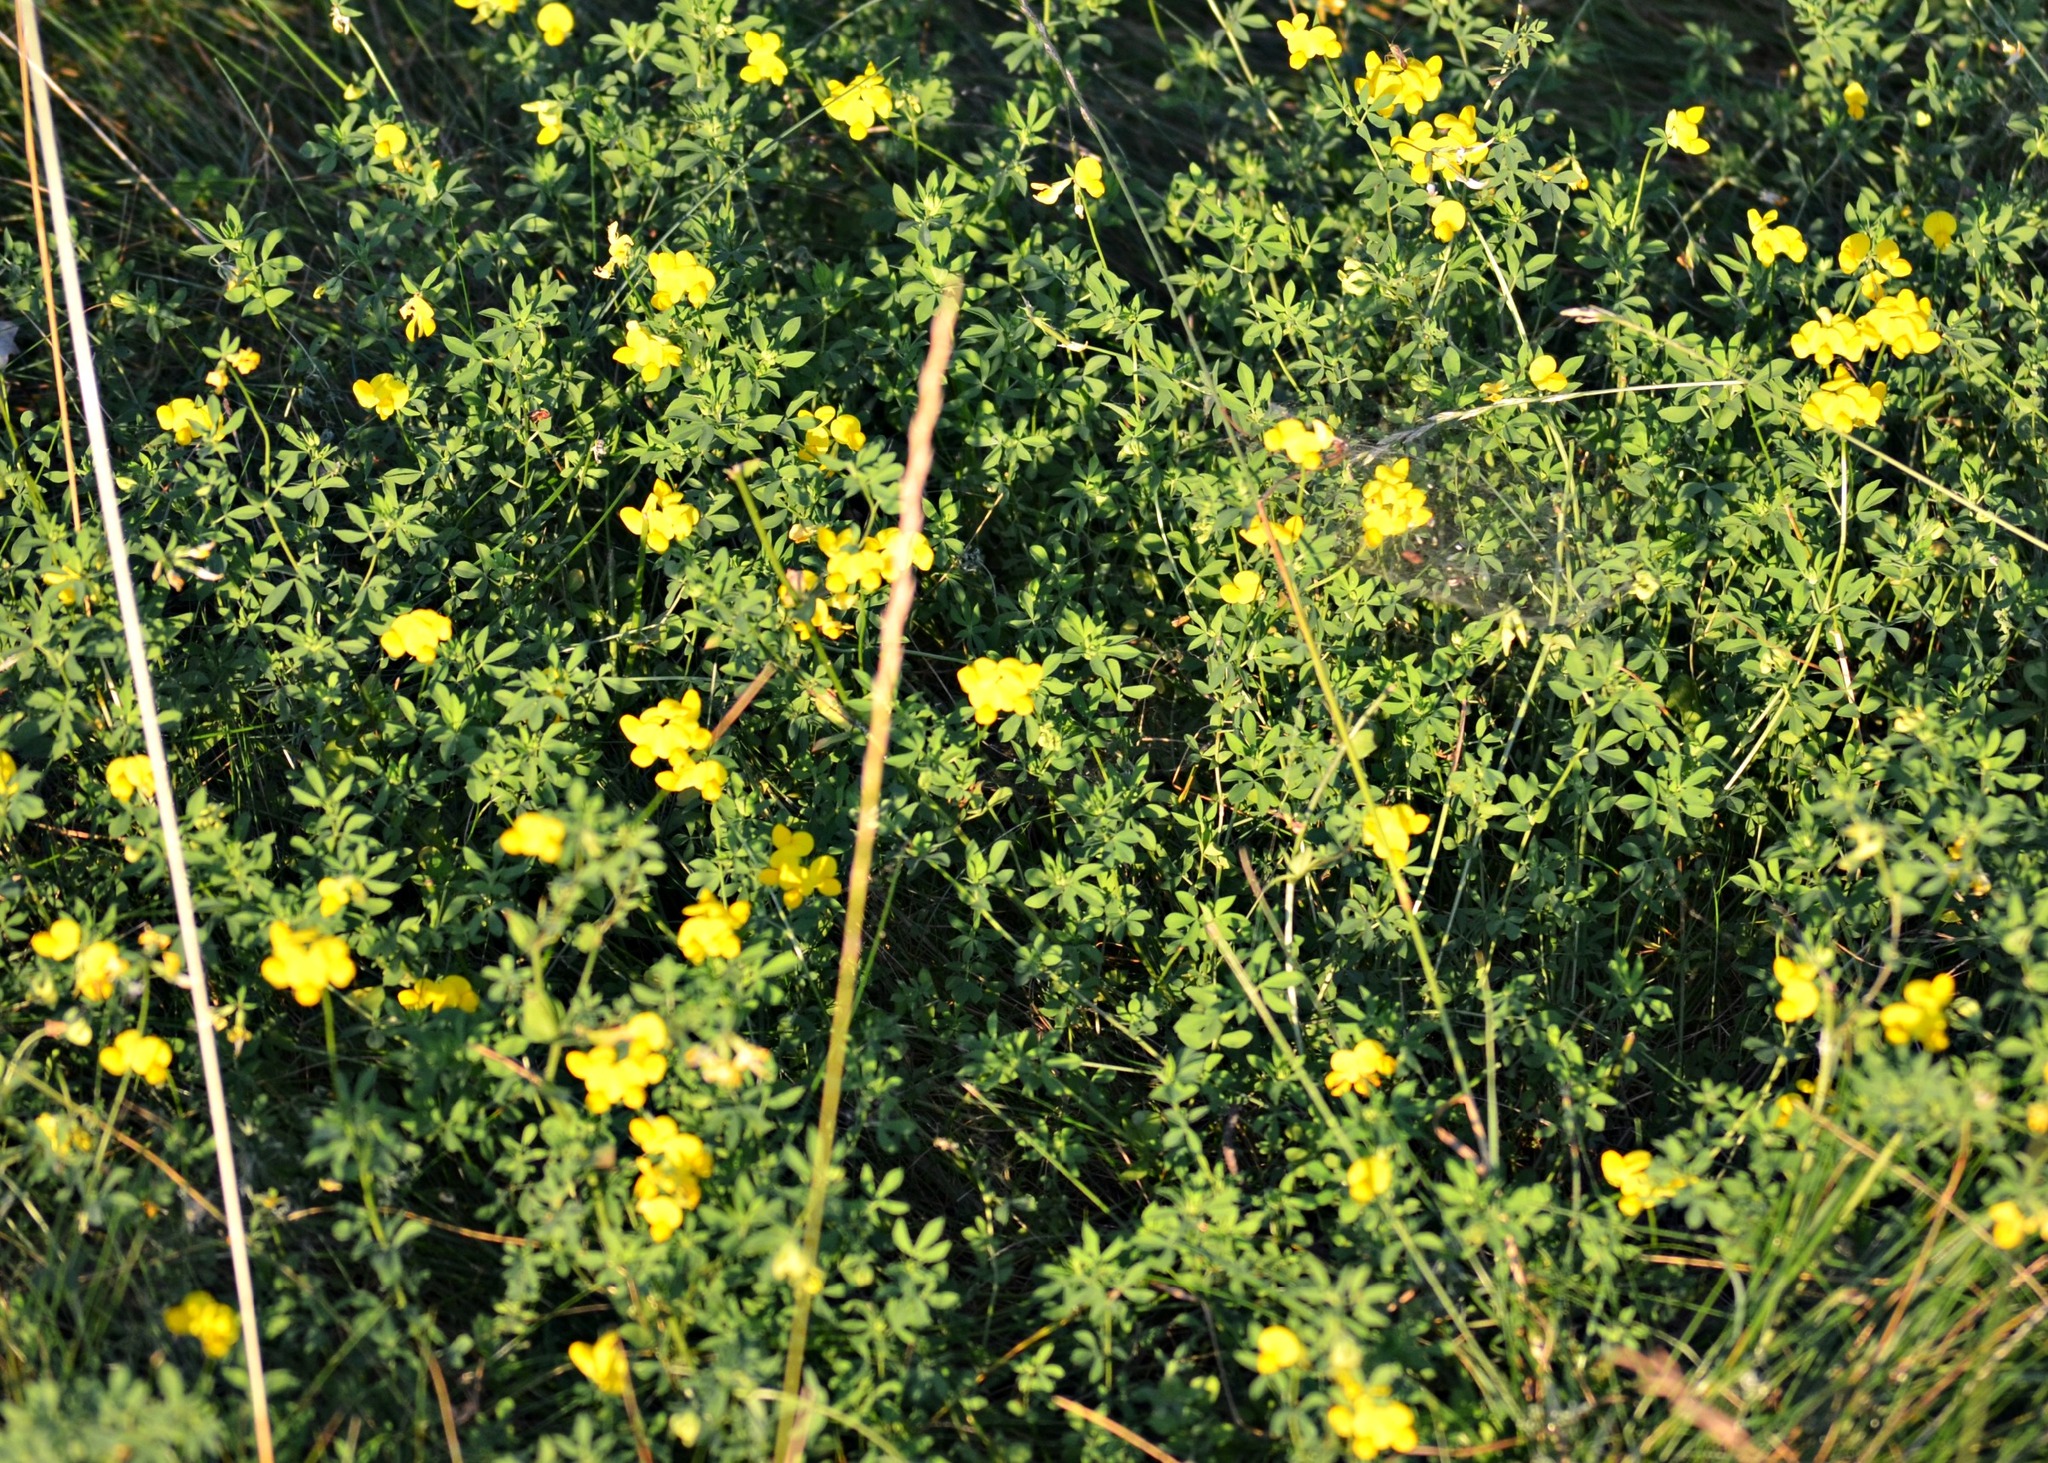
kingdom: Plantae
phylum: Tracheophyta
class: Magnoliopsida
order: Fabales
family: Fabaceae
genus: Lotus
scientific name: Lotus corniculatus
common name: Common bird's-foot-trefoil
